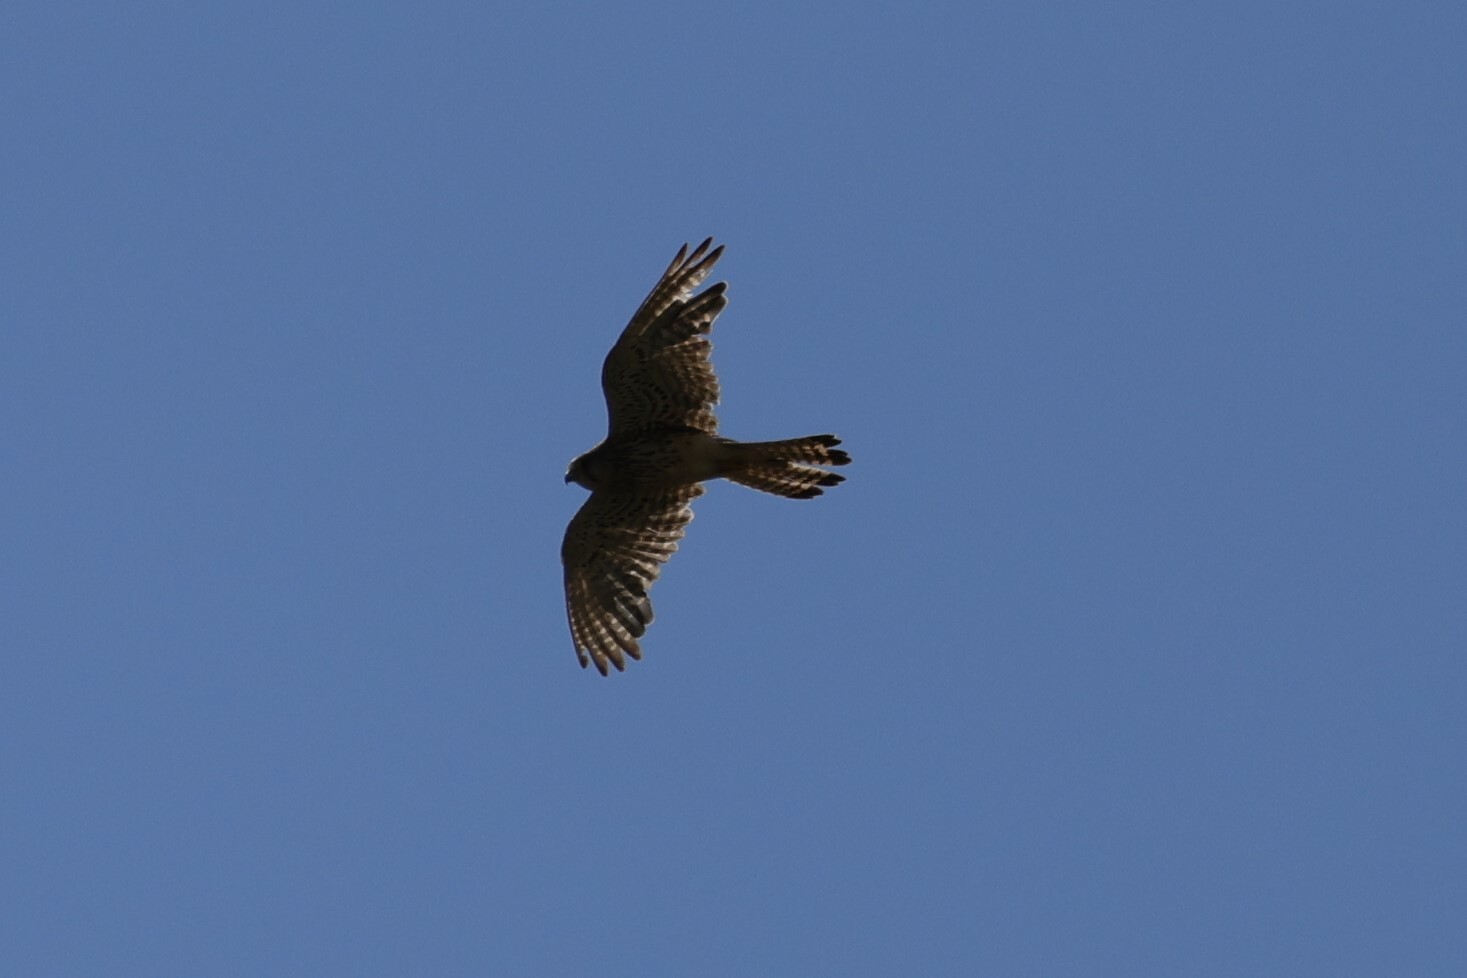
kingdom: Animalia
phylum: Chordata
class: Aves
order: Falconiformes
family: Falconidae
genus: Falco
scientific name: Falco tinnunculus
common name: Common kestrel
